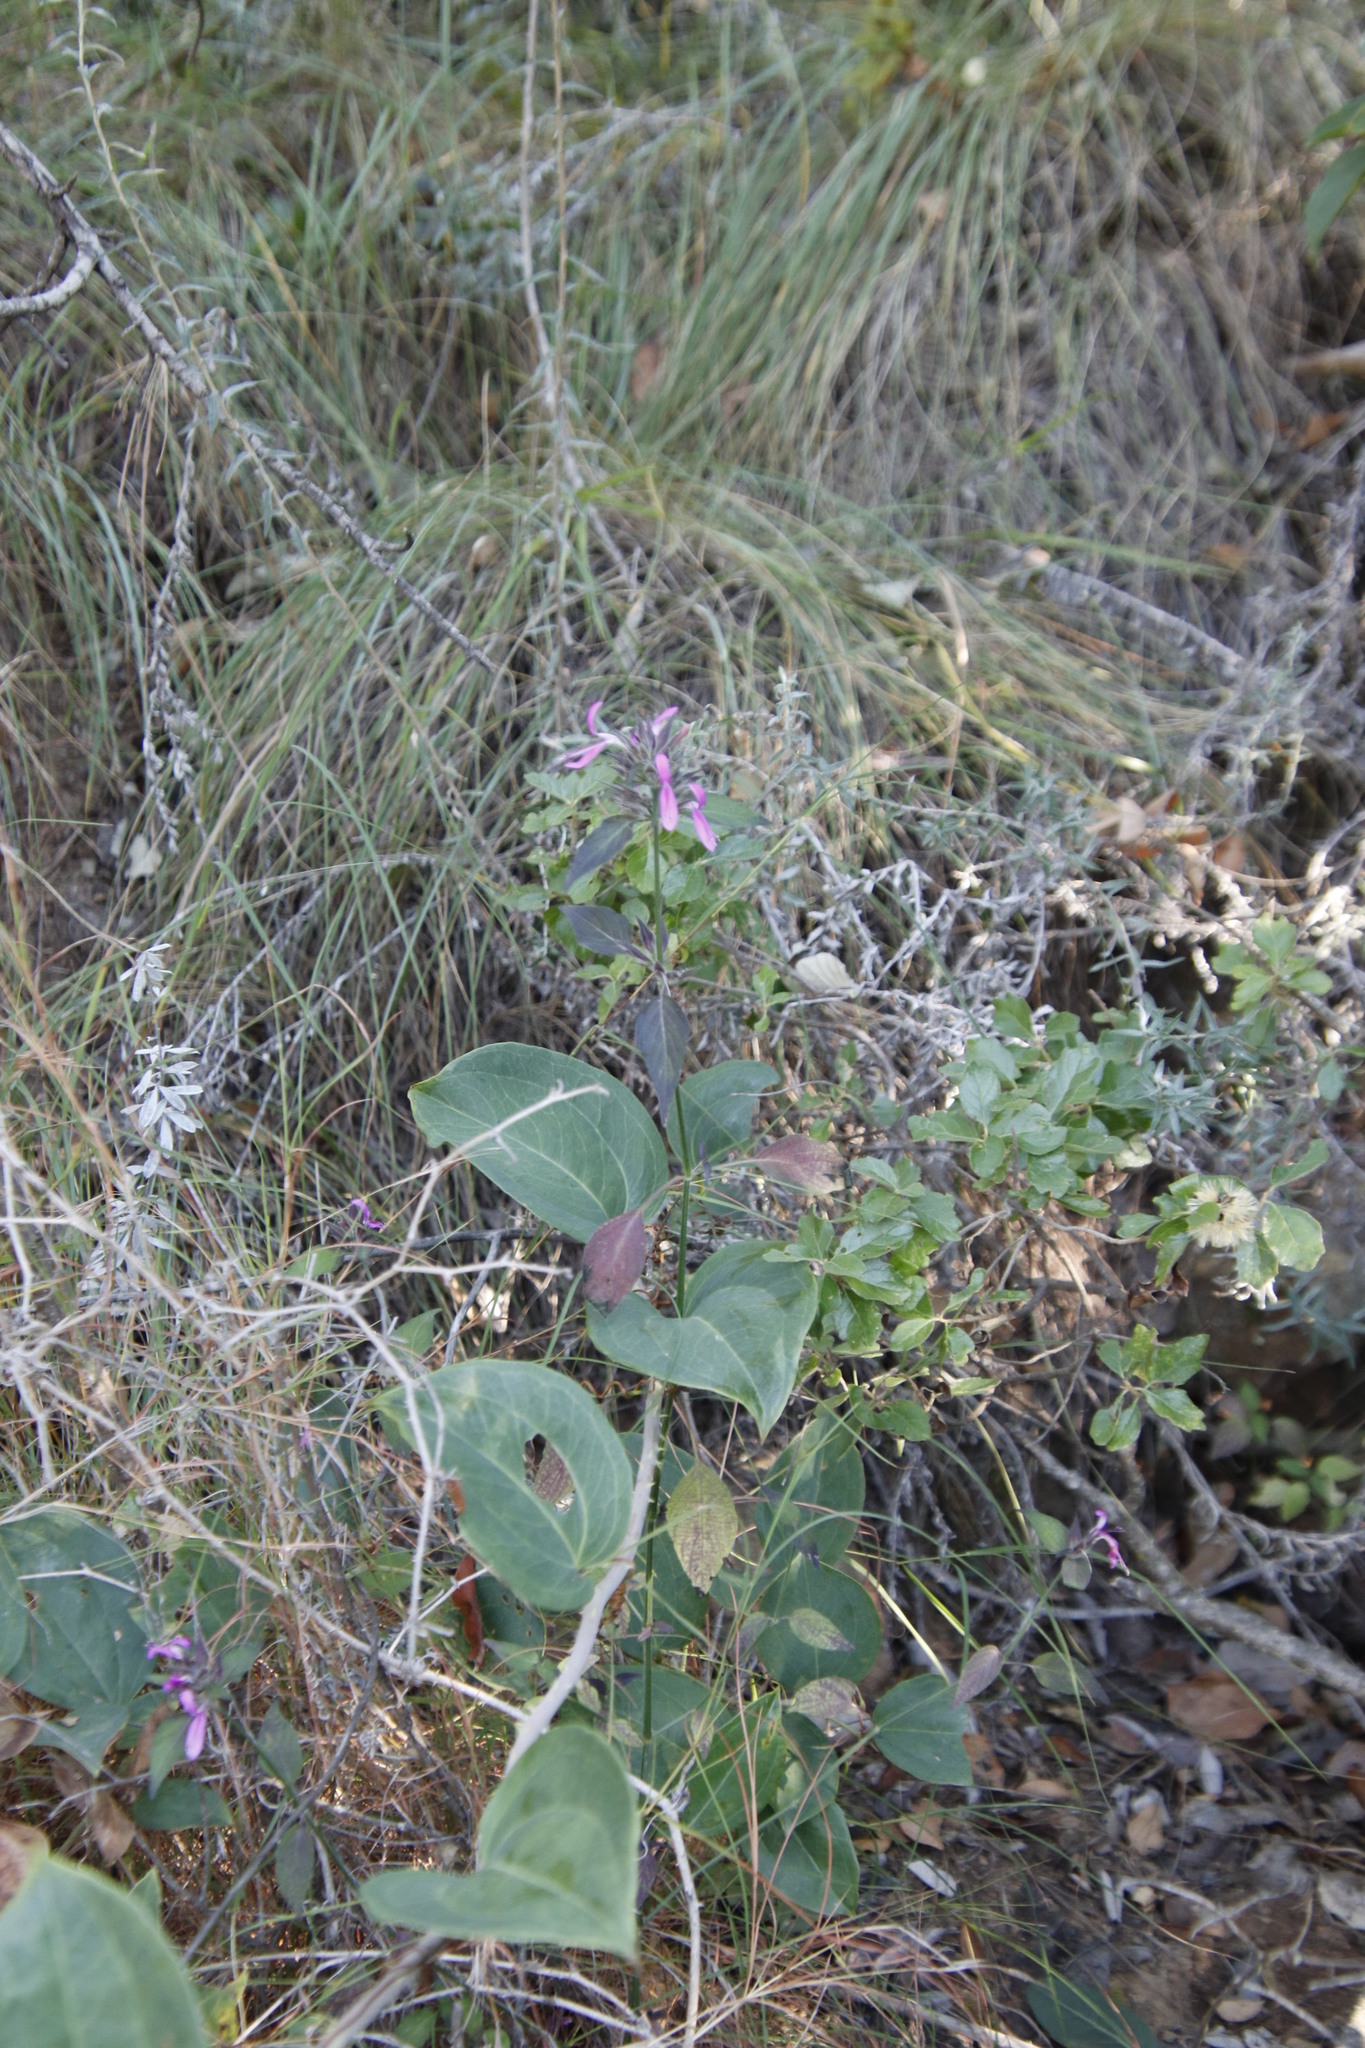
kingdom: Plantae
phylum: Tracheophyta
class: Magnoliopsida
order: Lamiales
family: Acanthaceae
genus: Dicliptera
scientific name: Dicliptera clinopodia
